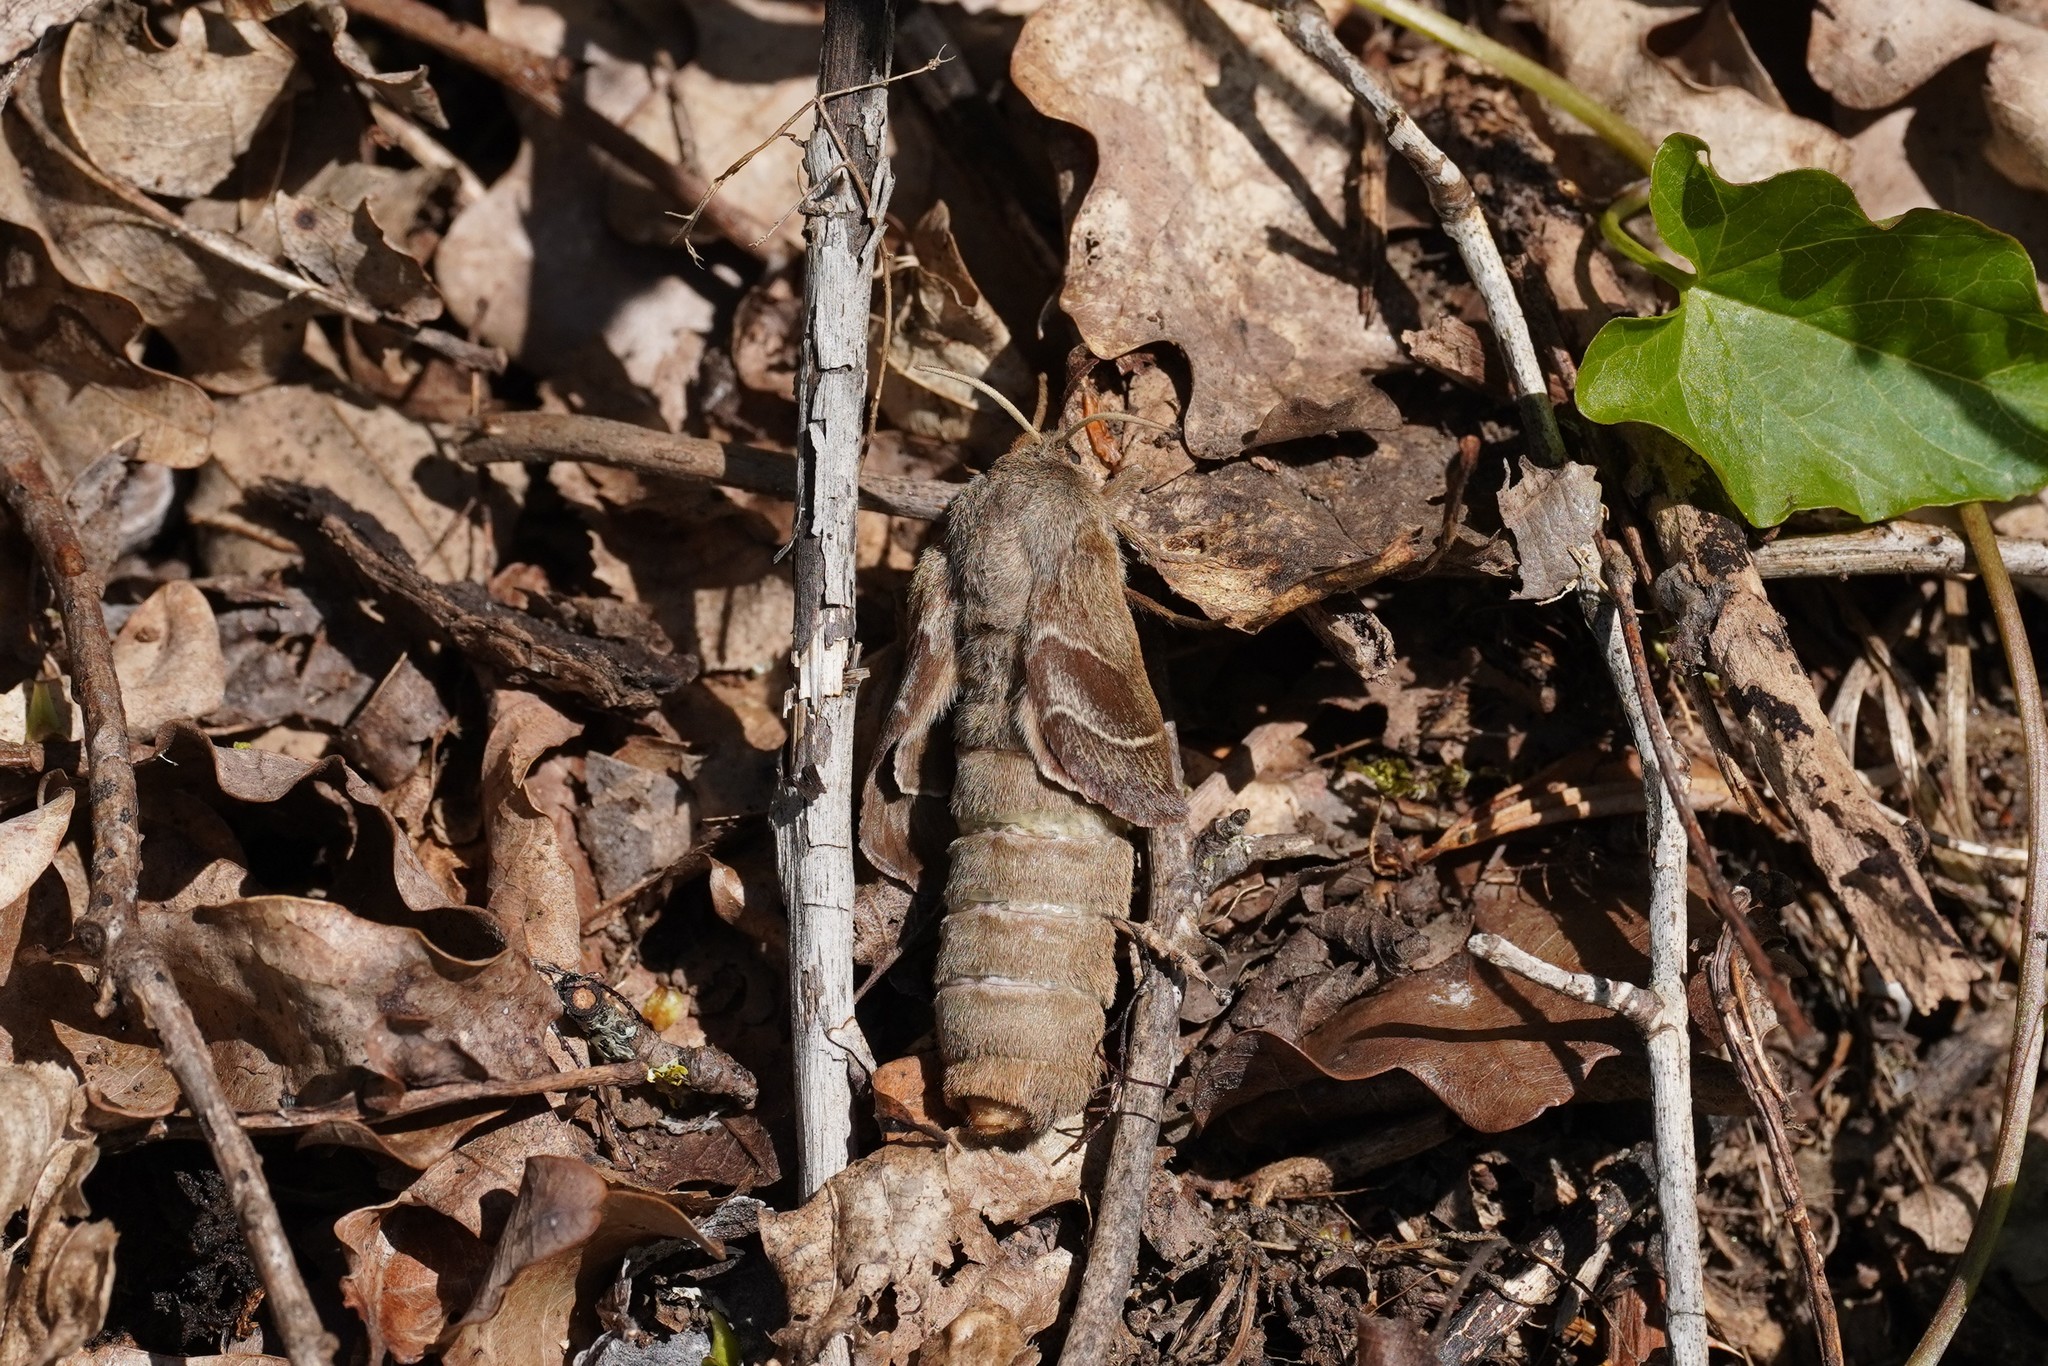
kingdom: Animalia
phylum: Arthropoda
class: Insecta
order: Lepidoptera
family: Lasiocampidae
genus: Macrothylacia
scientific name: Macrothylacia rubi
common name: Fox moth
